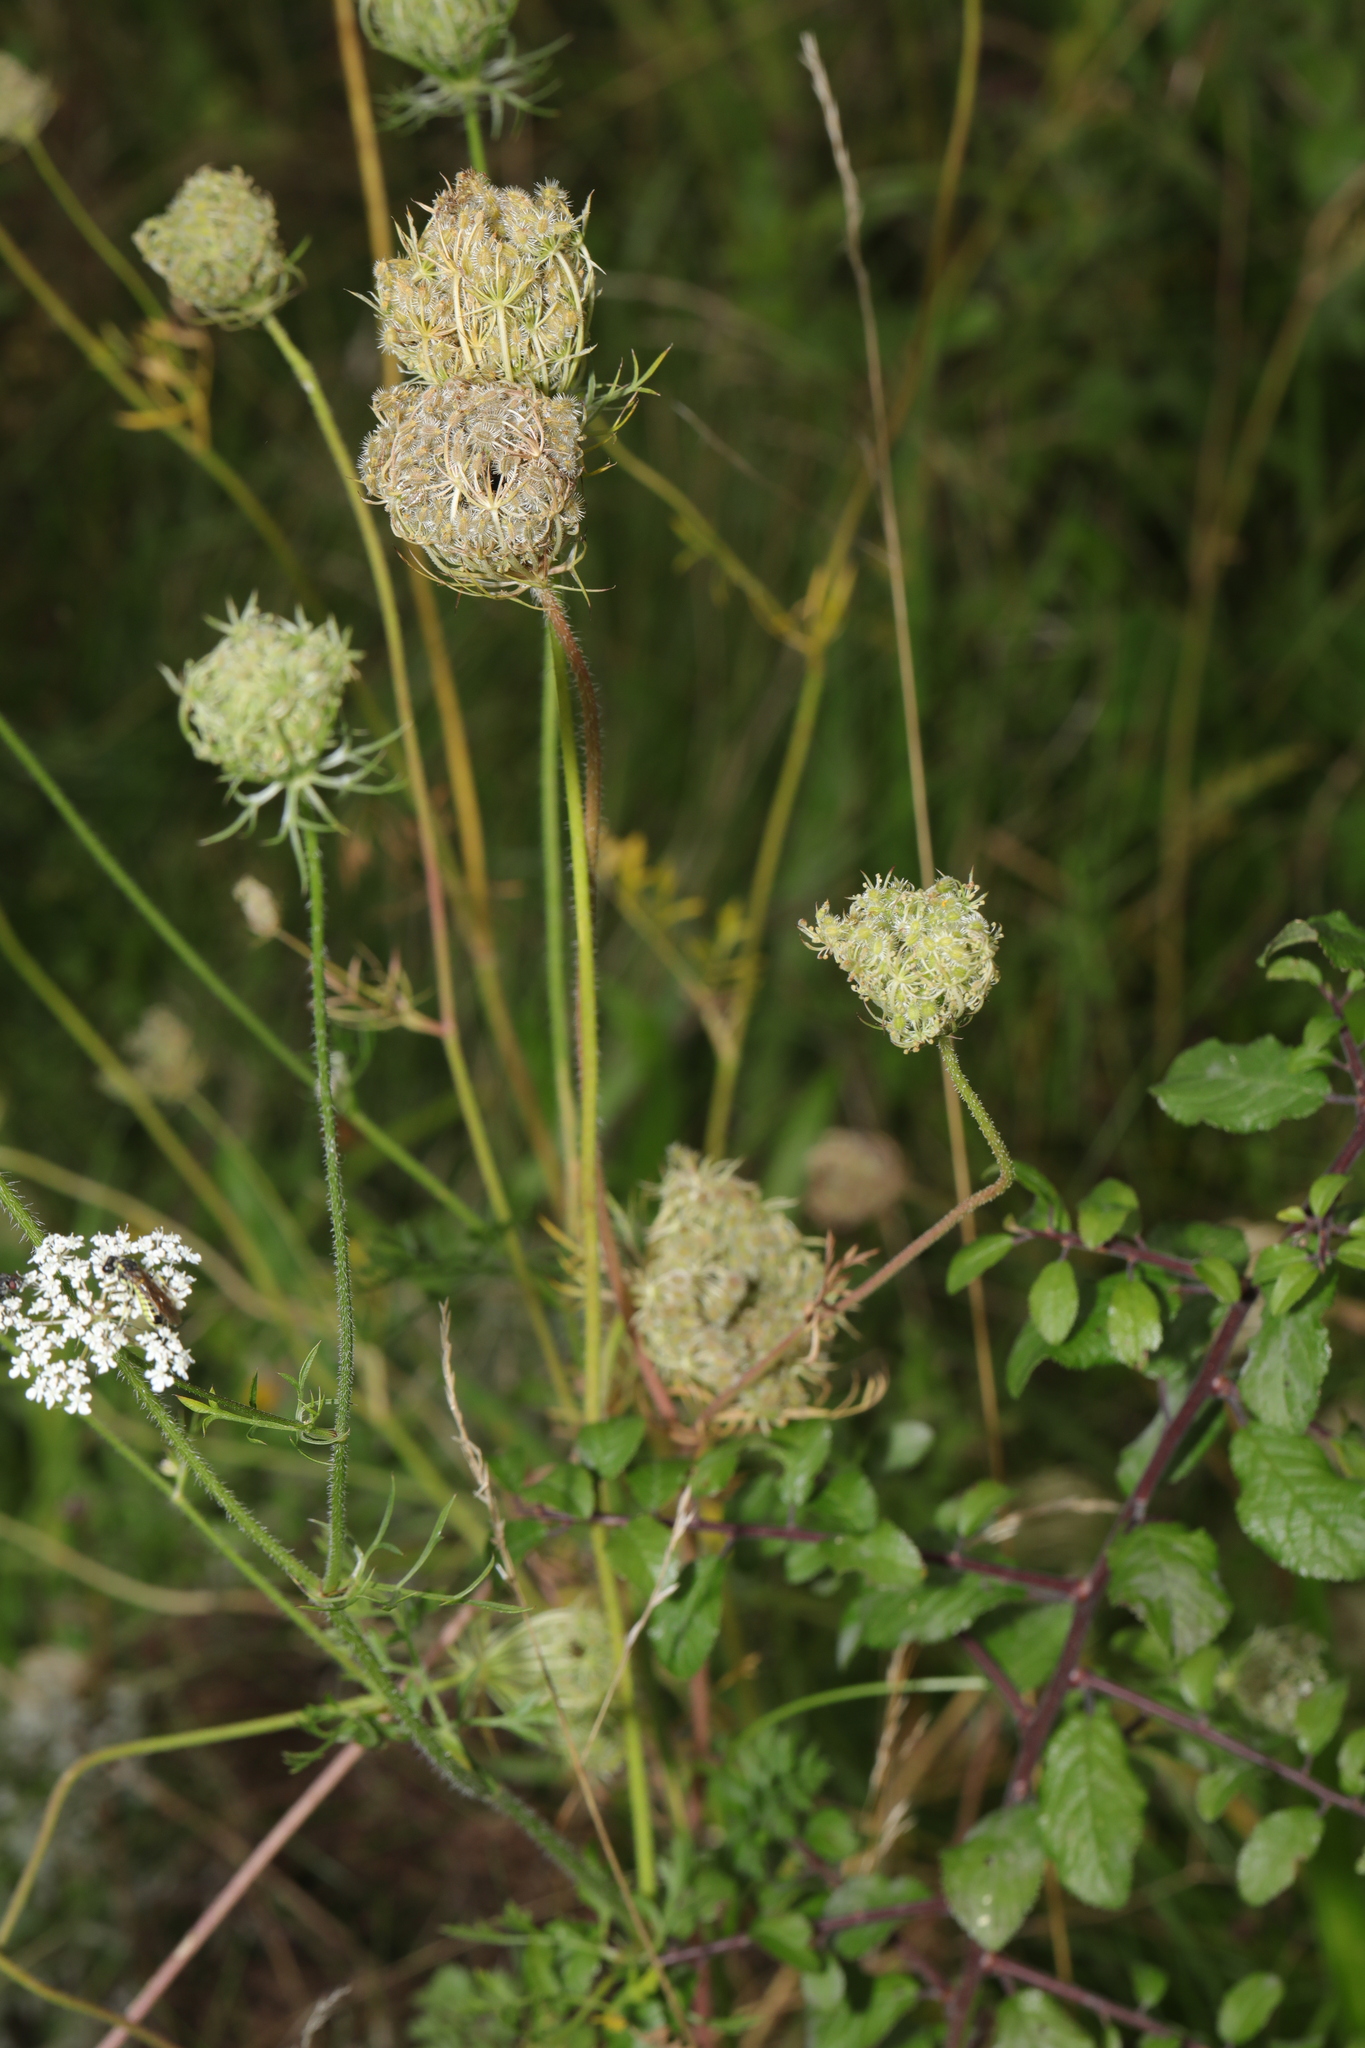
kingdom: Plantae
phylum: Tracheophyta
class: Magnoliopsida
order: Apiales
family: Apiaceae
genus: Daucus
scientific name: Daucus carota
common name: Wild carrot
